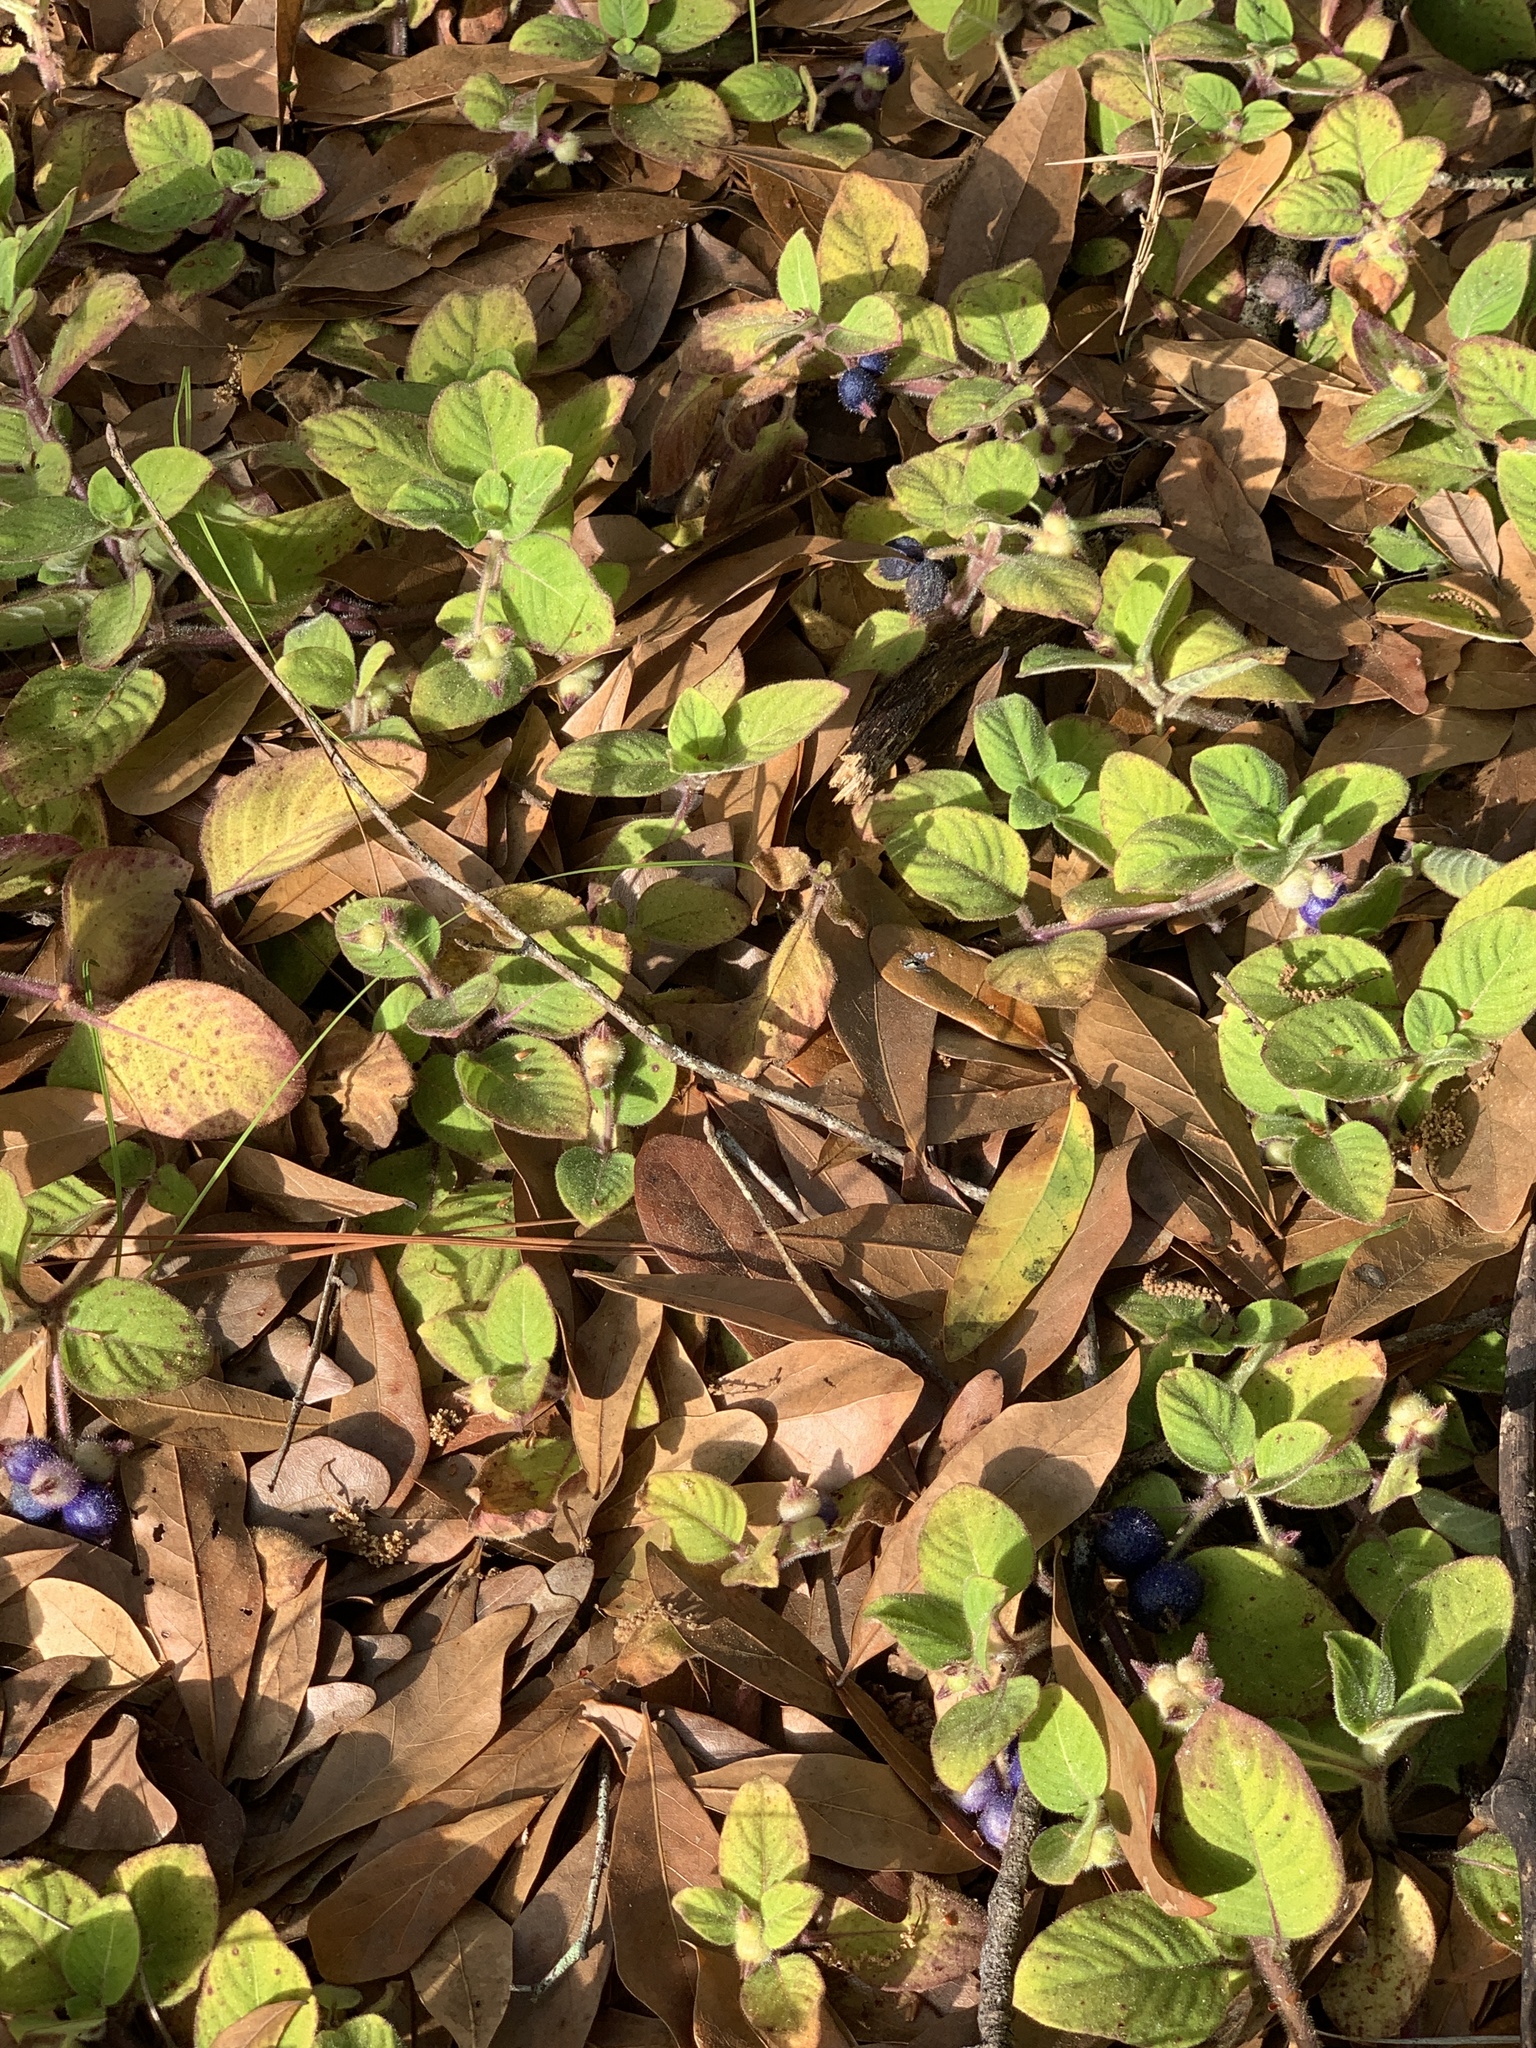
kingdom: Plantae
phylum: Tracheophyta
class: Magnoliopsida
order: Gentianales
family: Rubiaceae
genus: Coccocypselum
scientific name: Coccocypselum hirsutum
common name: Yerba de guava
